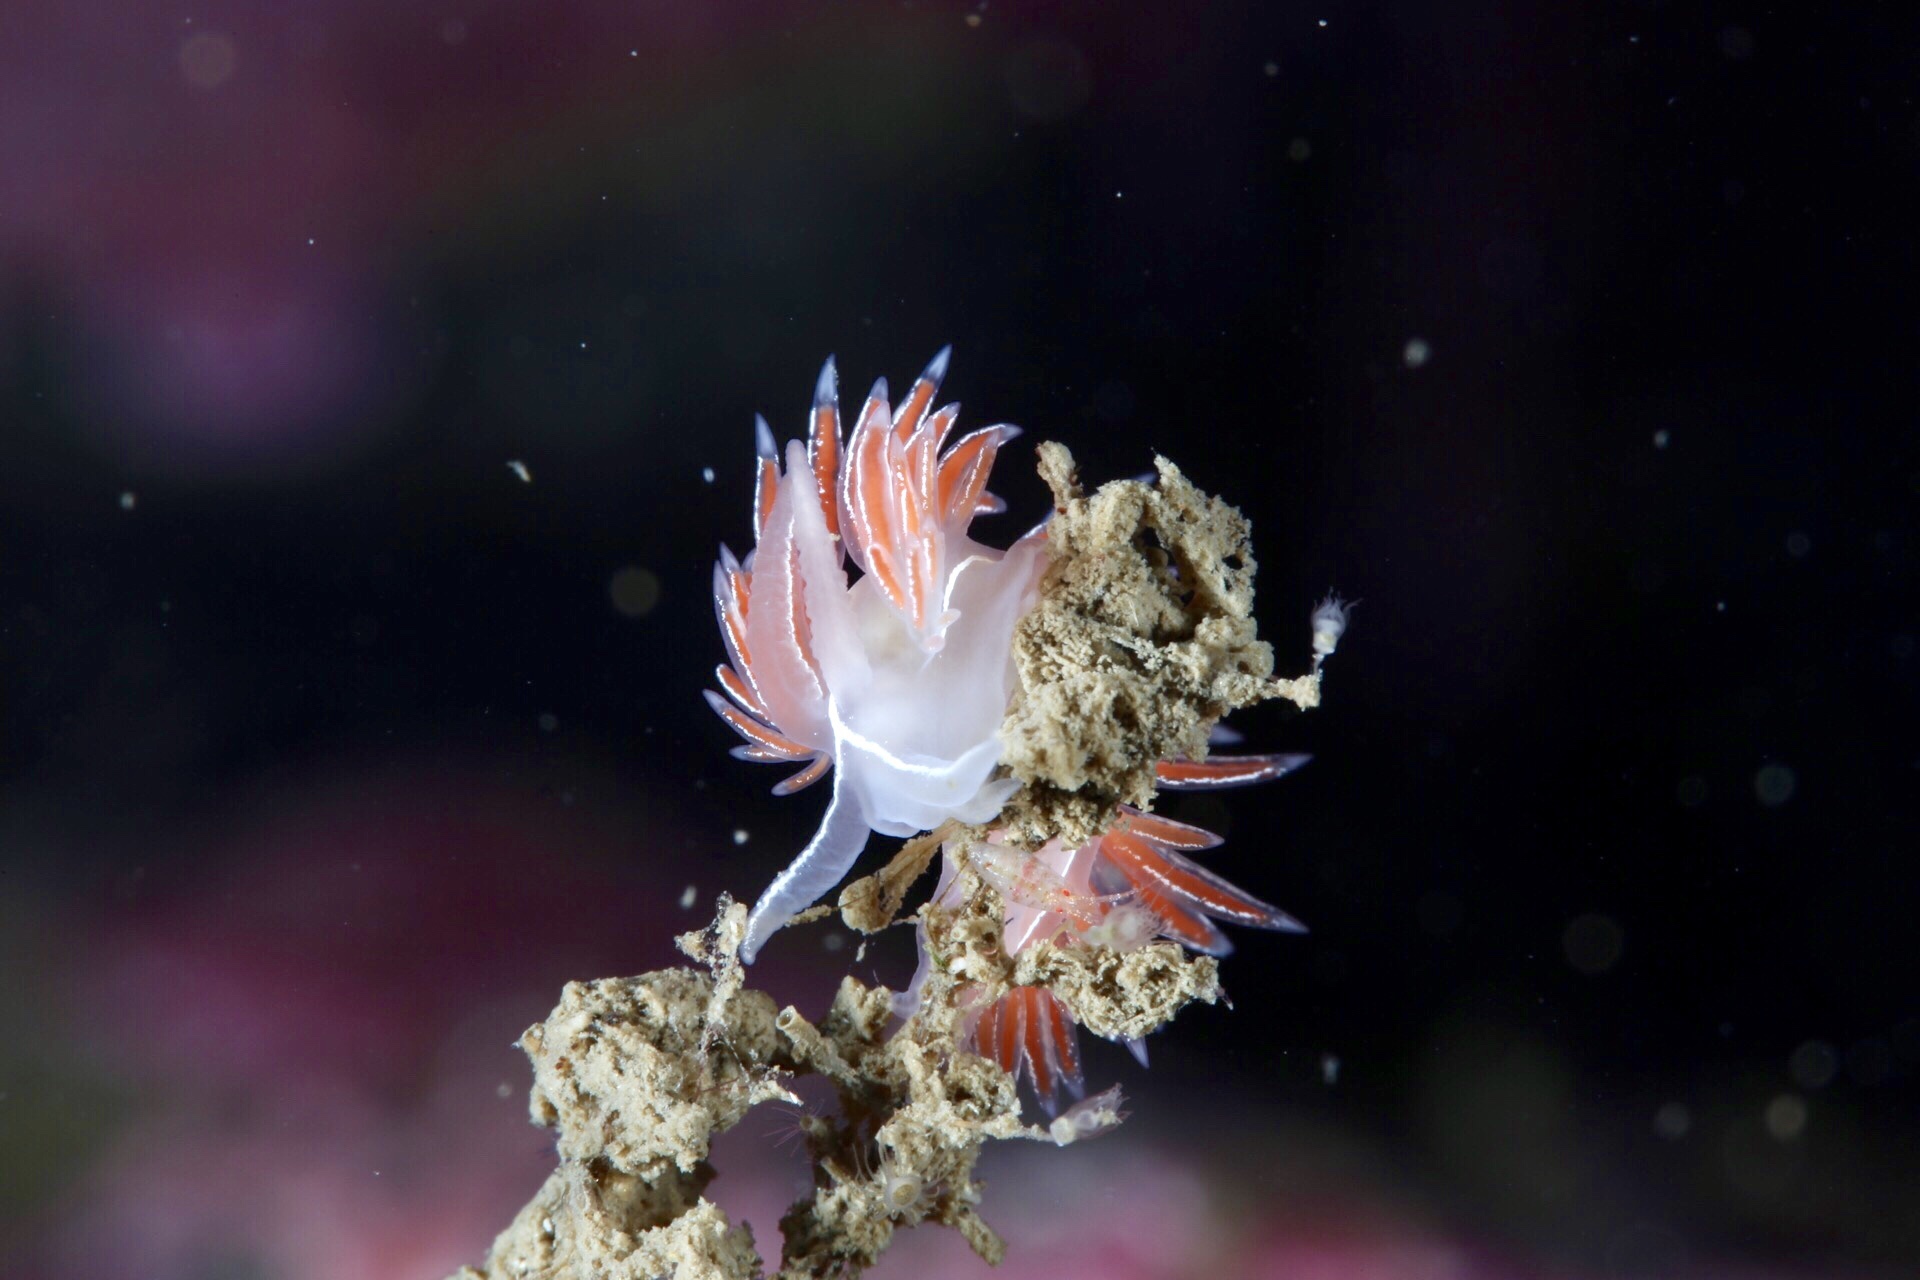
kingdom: Animalia
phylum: Mollusca
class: Gastropoda
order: Nudibranchia
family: Coryphellidae
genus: Coryphella
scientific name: Coryphella chriskaugei
